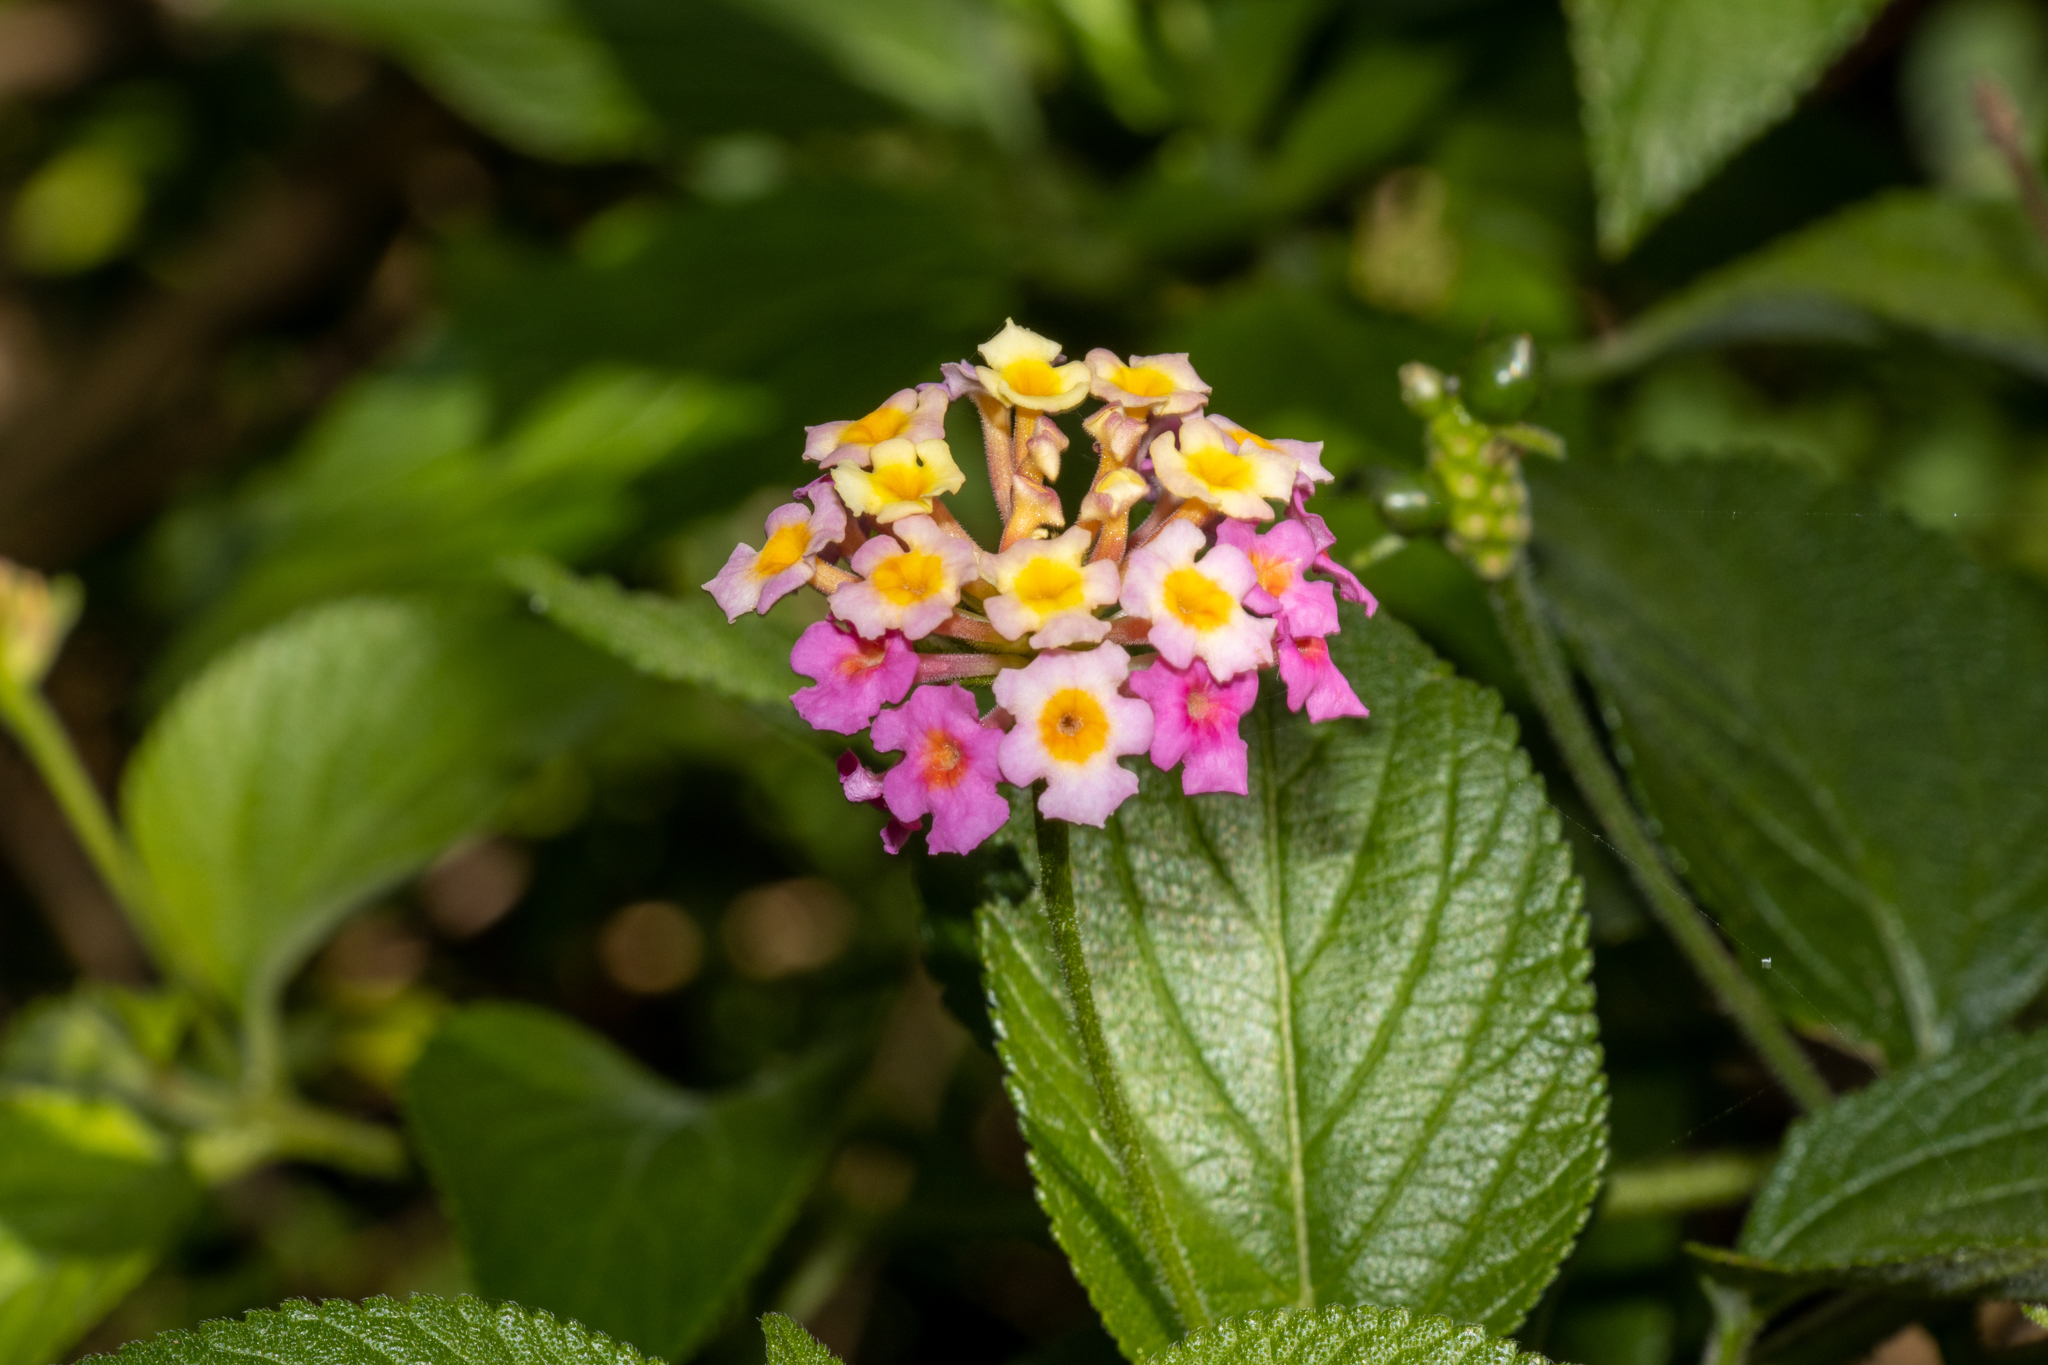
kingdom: Plantae
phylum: Tracheophyta
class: Magnoliopsida
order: Lamiales
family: Verbenaceae
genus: Lantana
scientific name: Lantana camara
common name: Lantana
